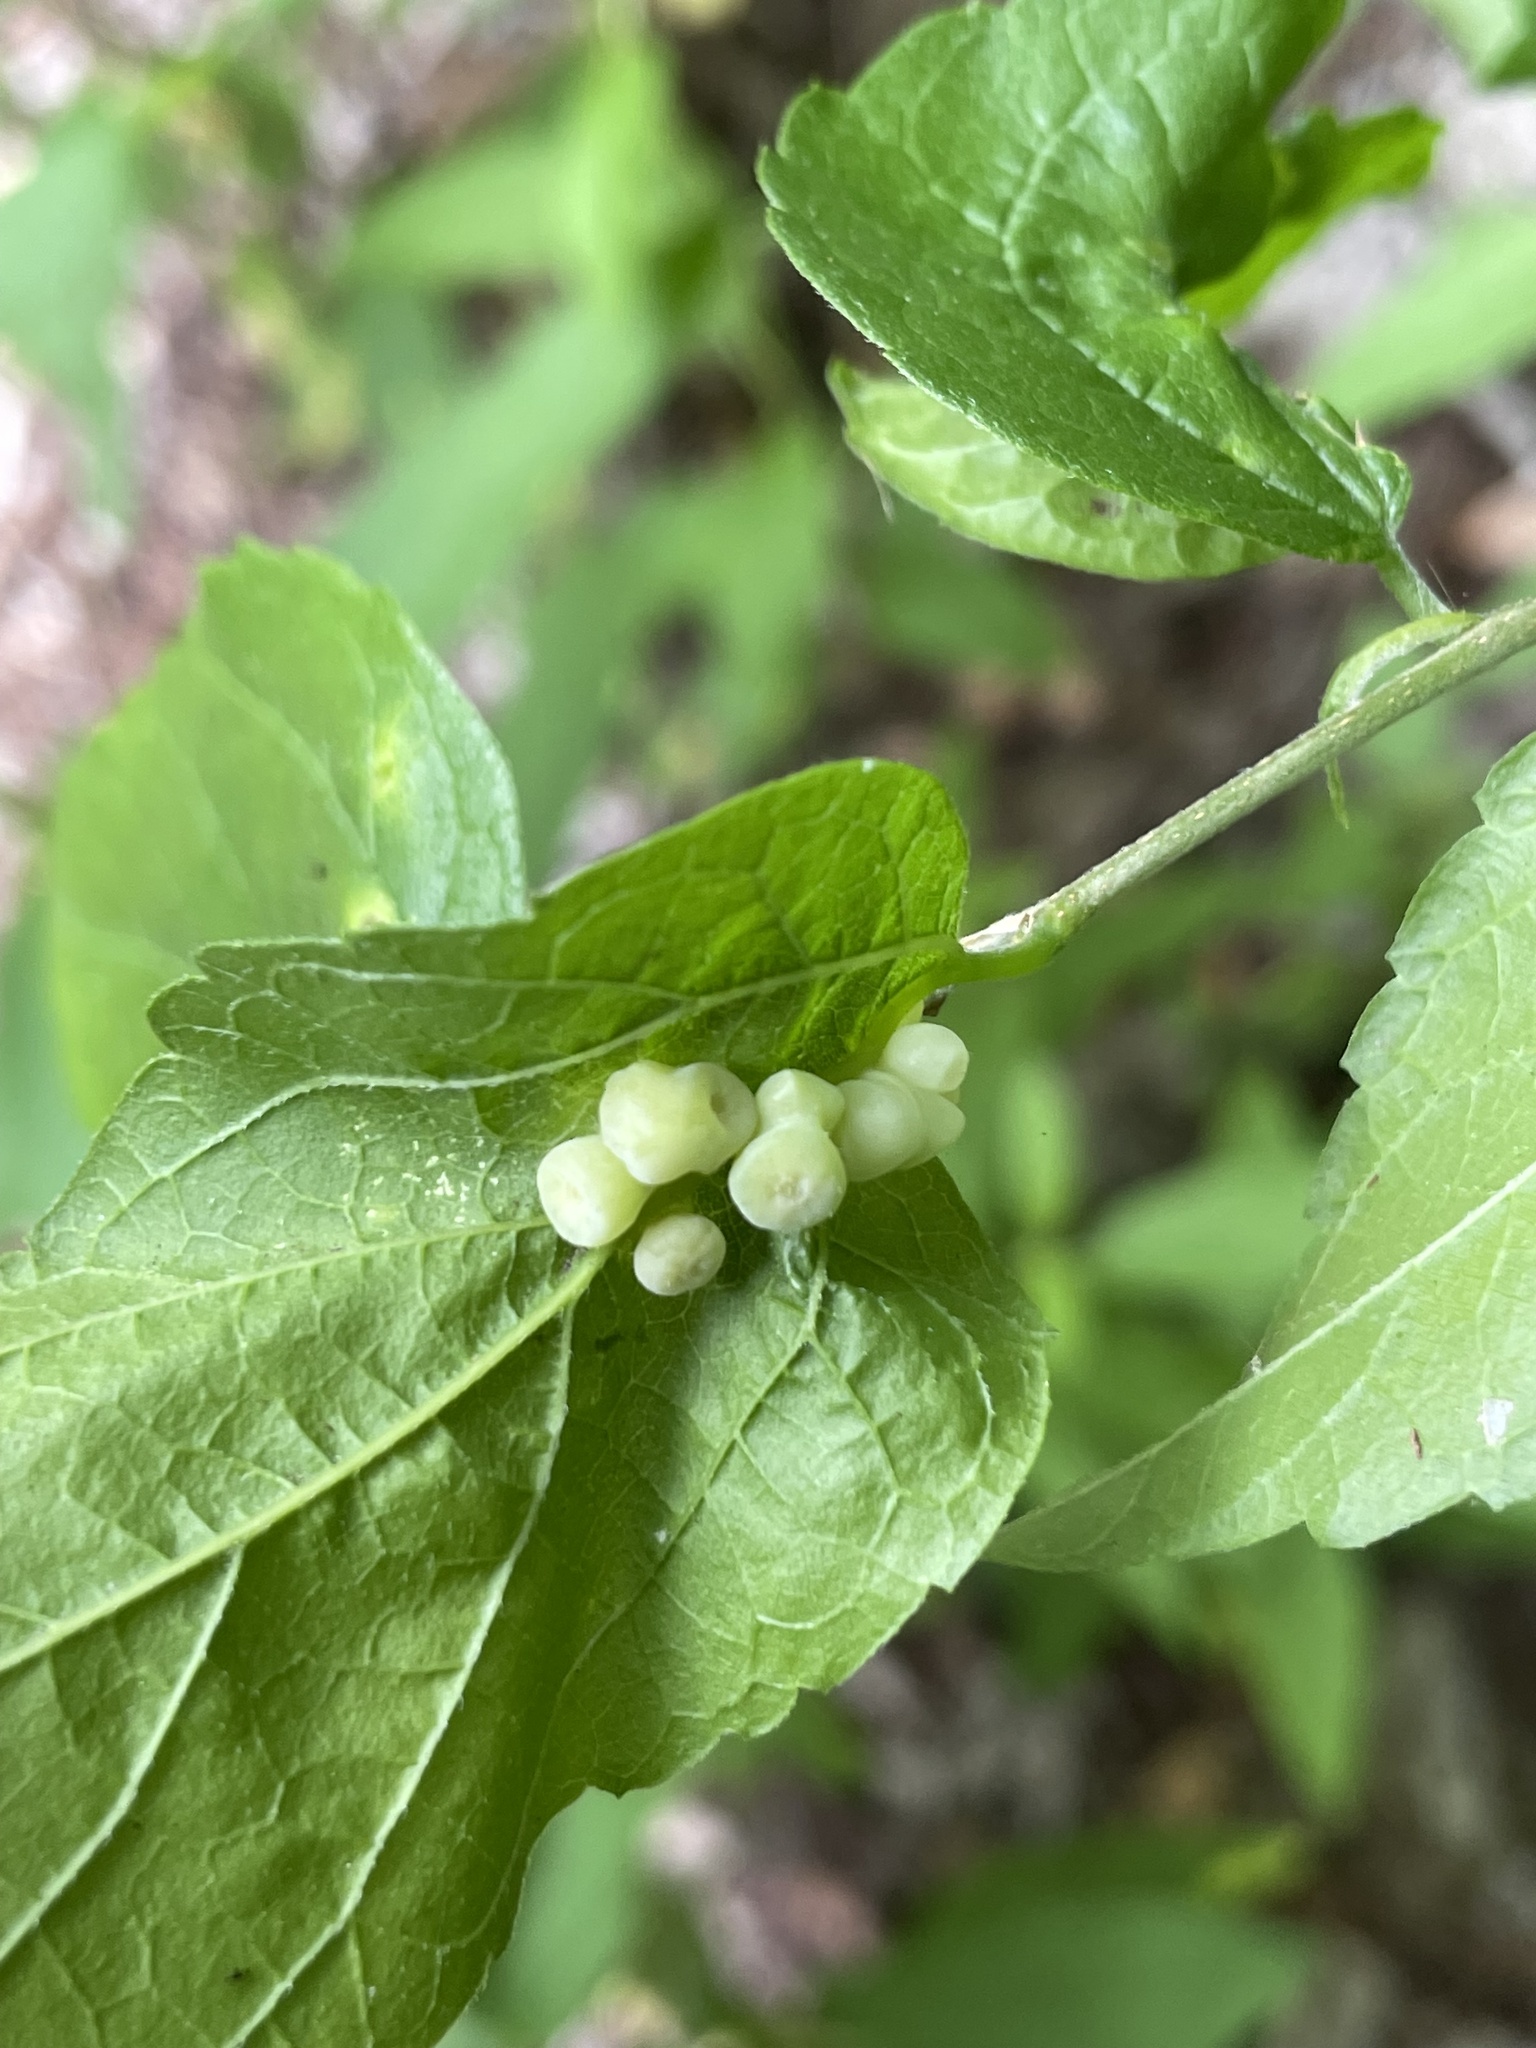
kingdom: Animalia
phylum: Arthropoda
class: Insecta
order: Hemiptera
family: Aphalaridae
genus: Pachypsylla
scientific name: Pachypsylla celtidismamma
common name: Hackberry nipplegall psyllid
